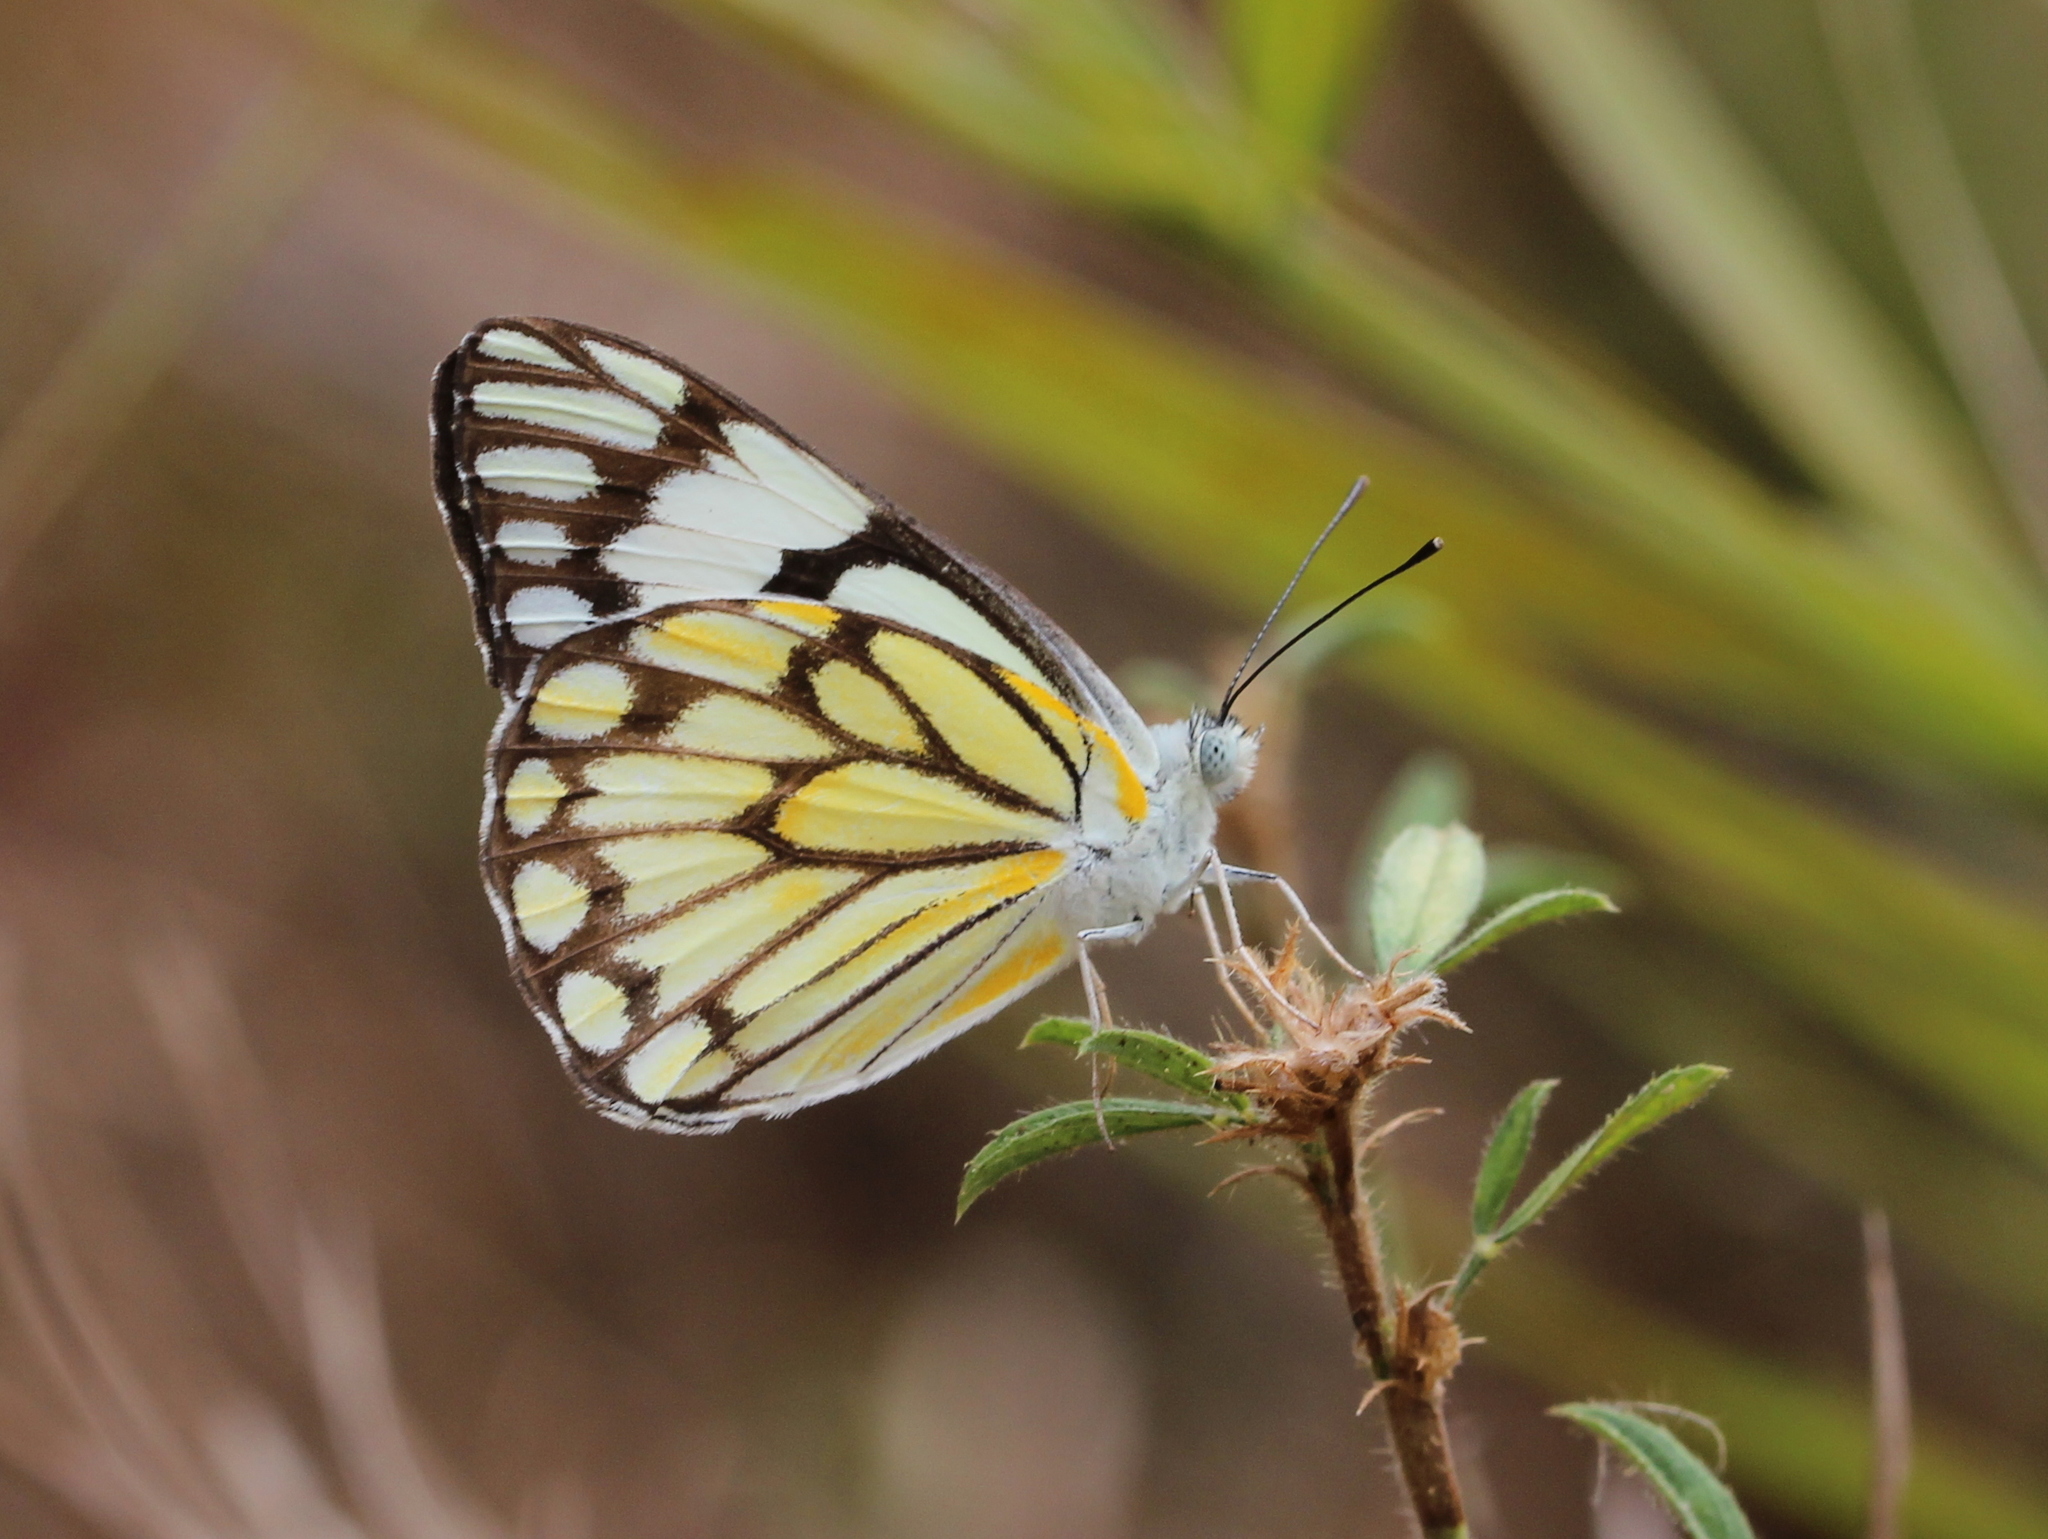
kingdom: Animalia
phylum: Arthropoda
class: Insecta
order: Lepidoptera
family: Pieridae
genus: Belenois
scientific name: Belenois aurota
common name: Brown-veined white
